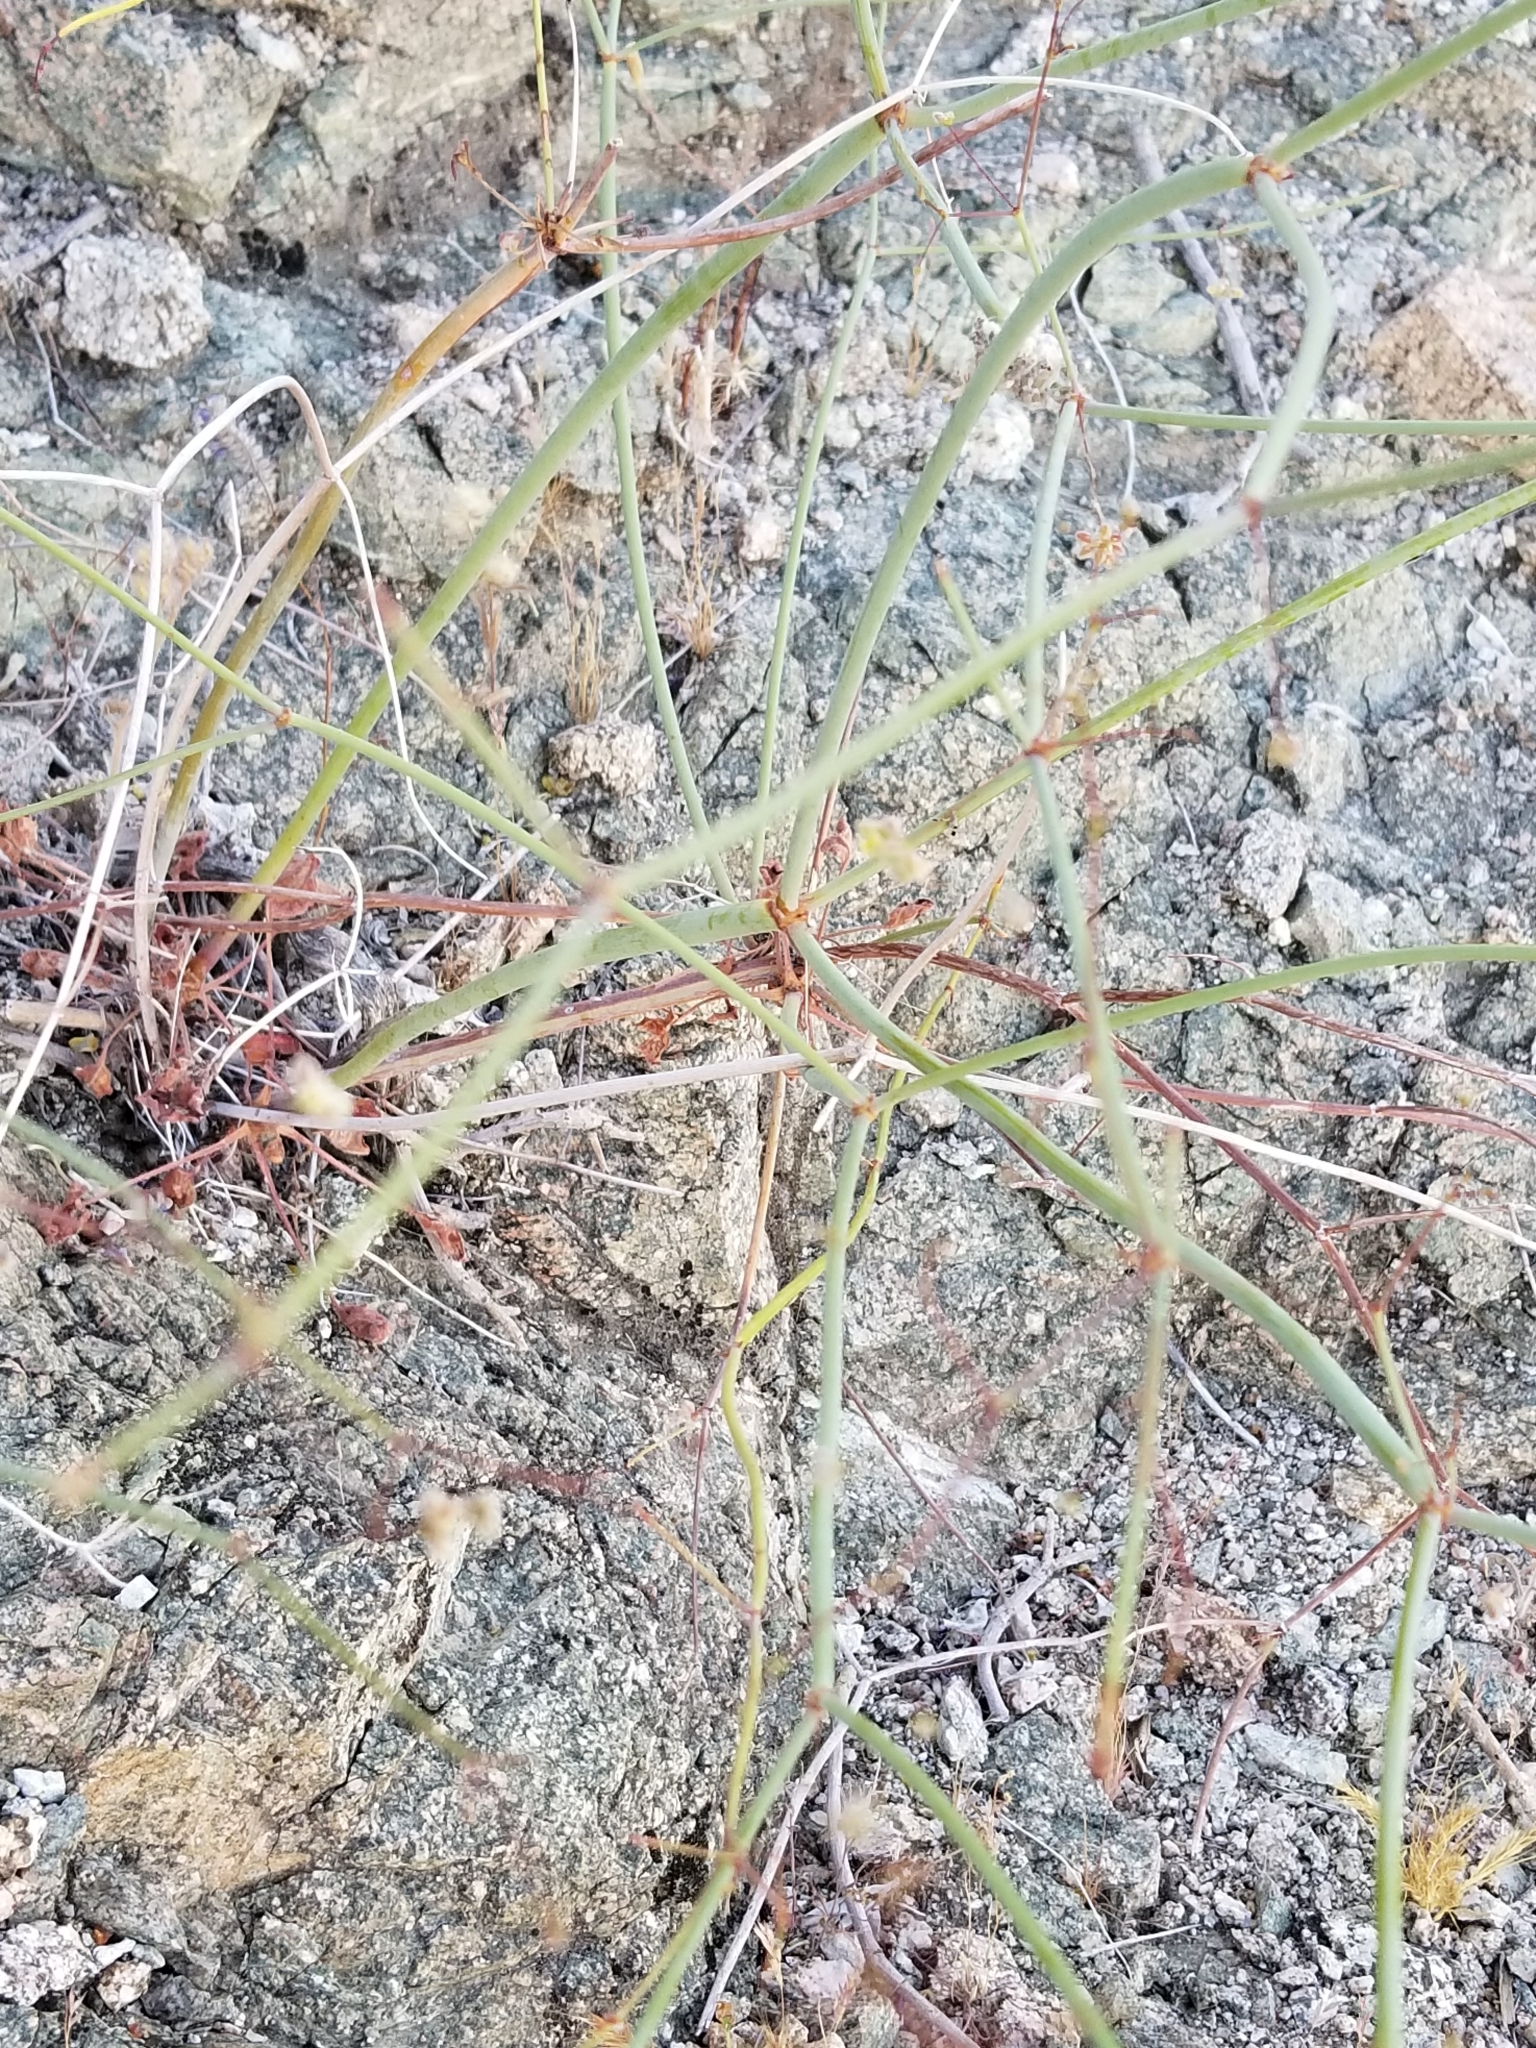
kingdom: Plantae
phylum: Tracheophyta
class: Magnoliopsida
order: Caryophyllales
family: Polygonaceae
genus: Eriogonum
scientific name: Eriogonum inflatum
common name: Desert trumpet
